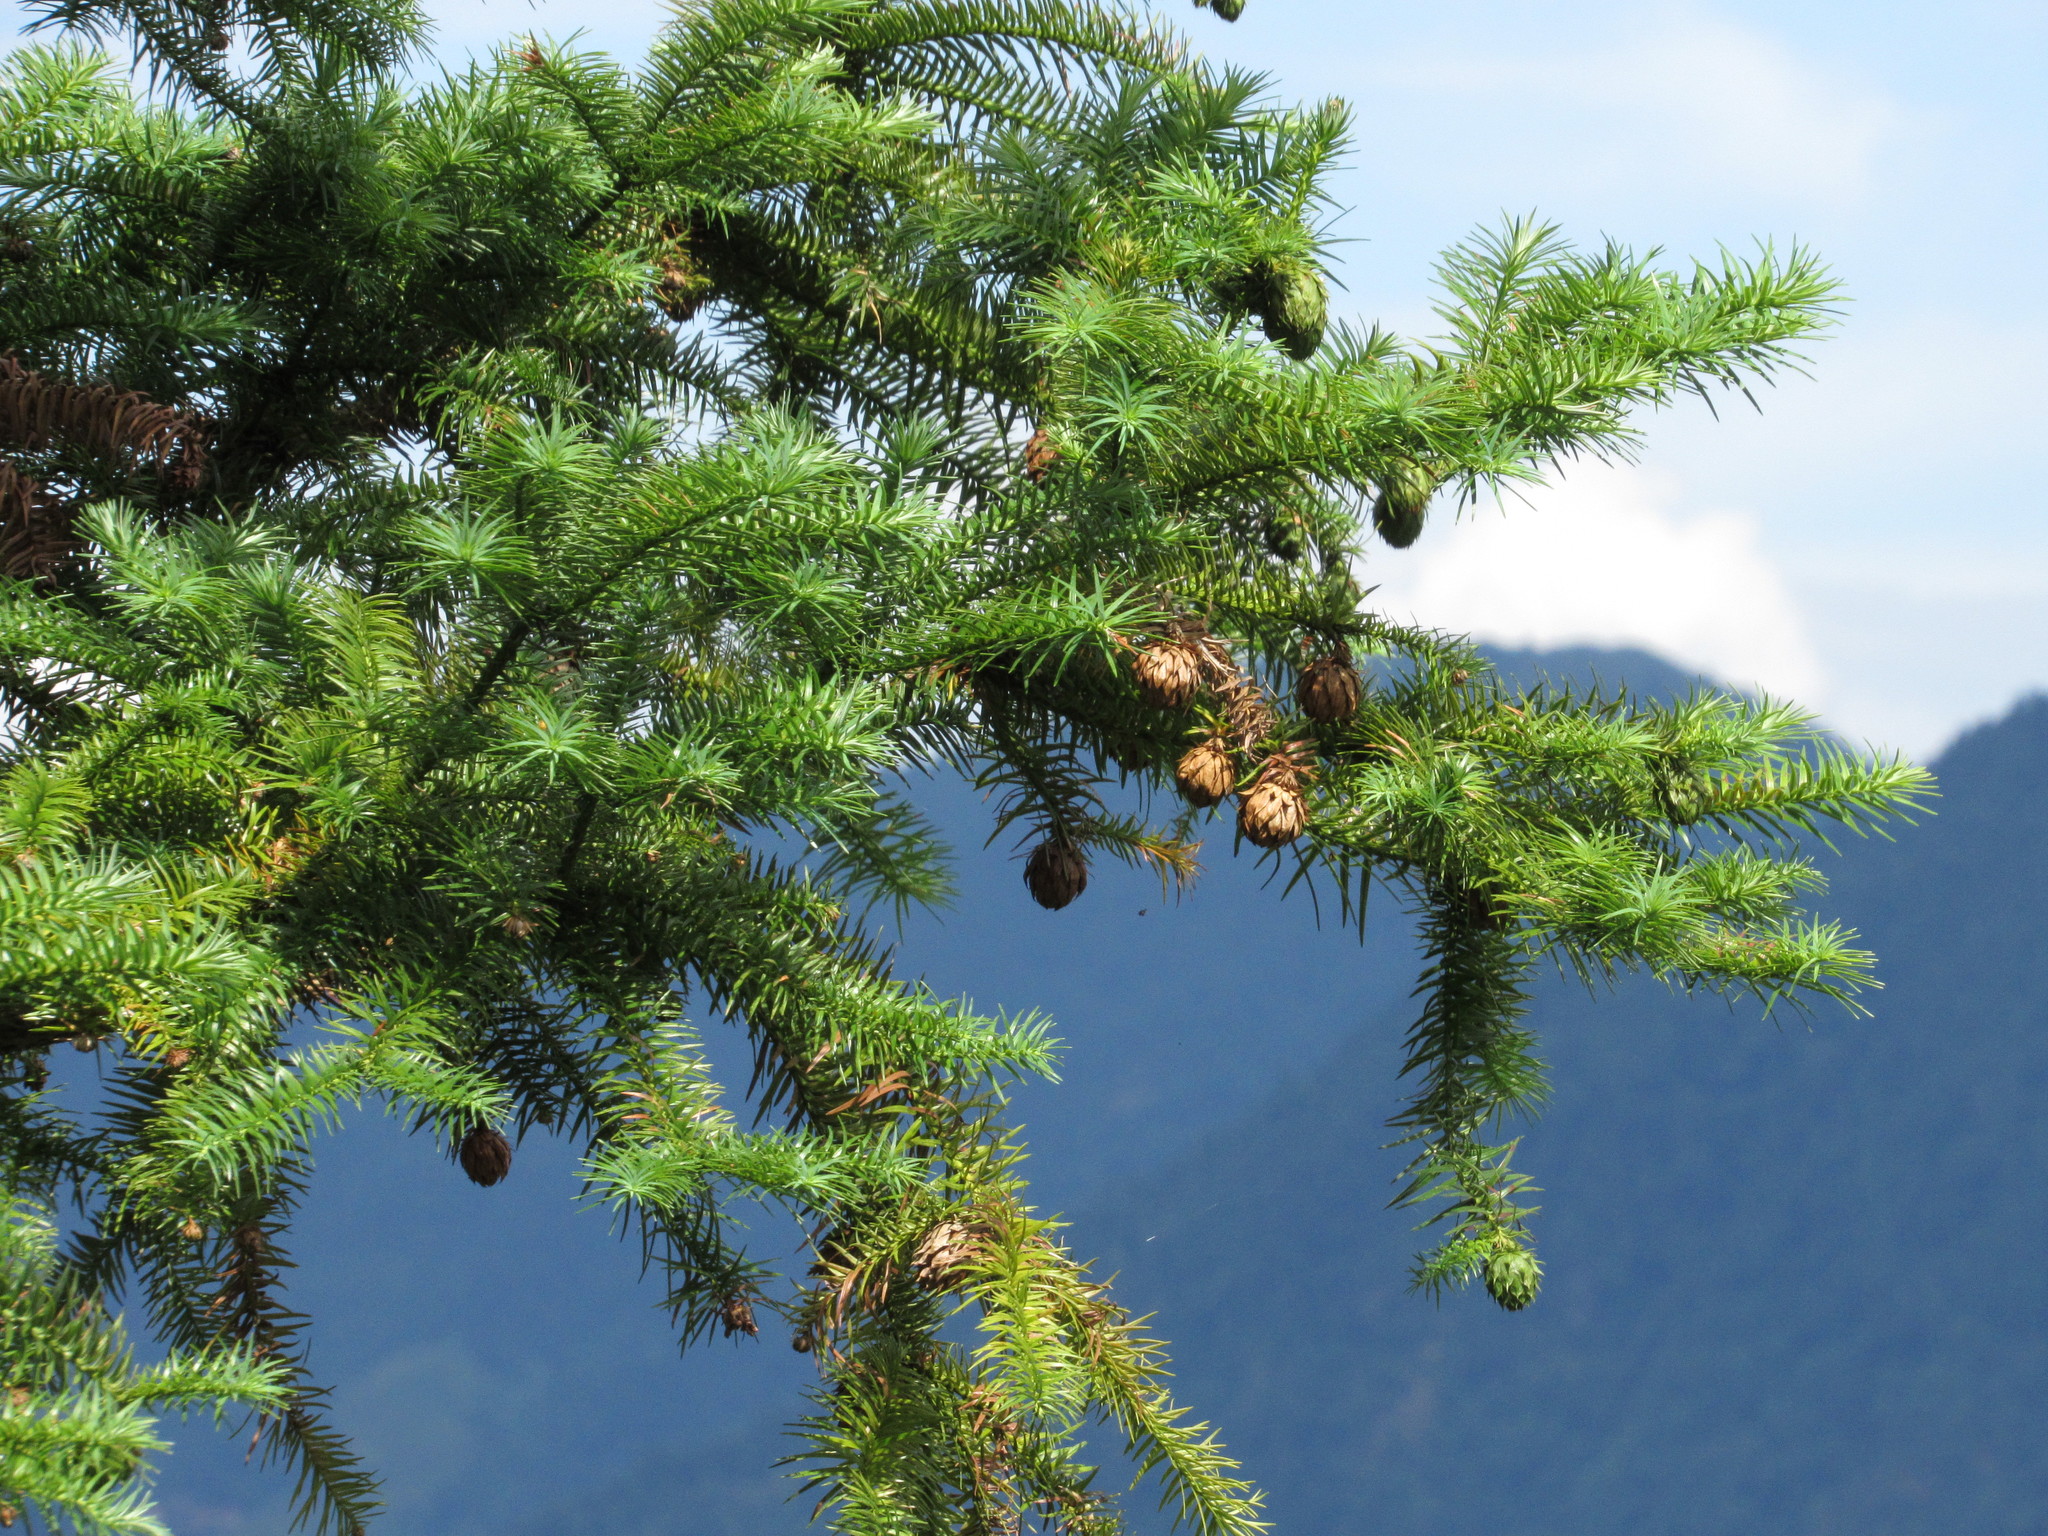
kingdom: Plantae
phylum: Tracheophyta
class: Pinopsida
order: Pinales
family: Cupressaceae
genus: Cunninghamia
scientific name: Cunninghamia lanceolata
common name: Chinese fir
